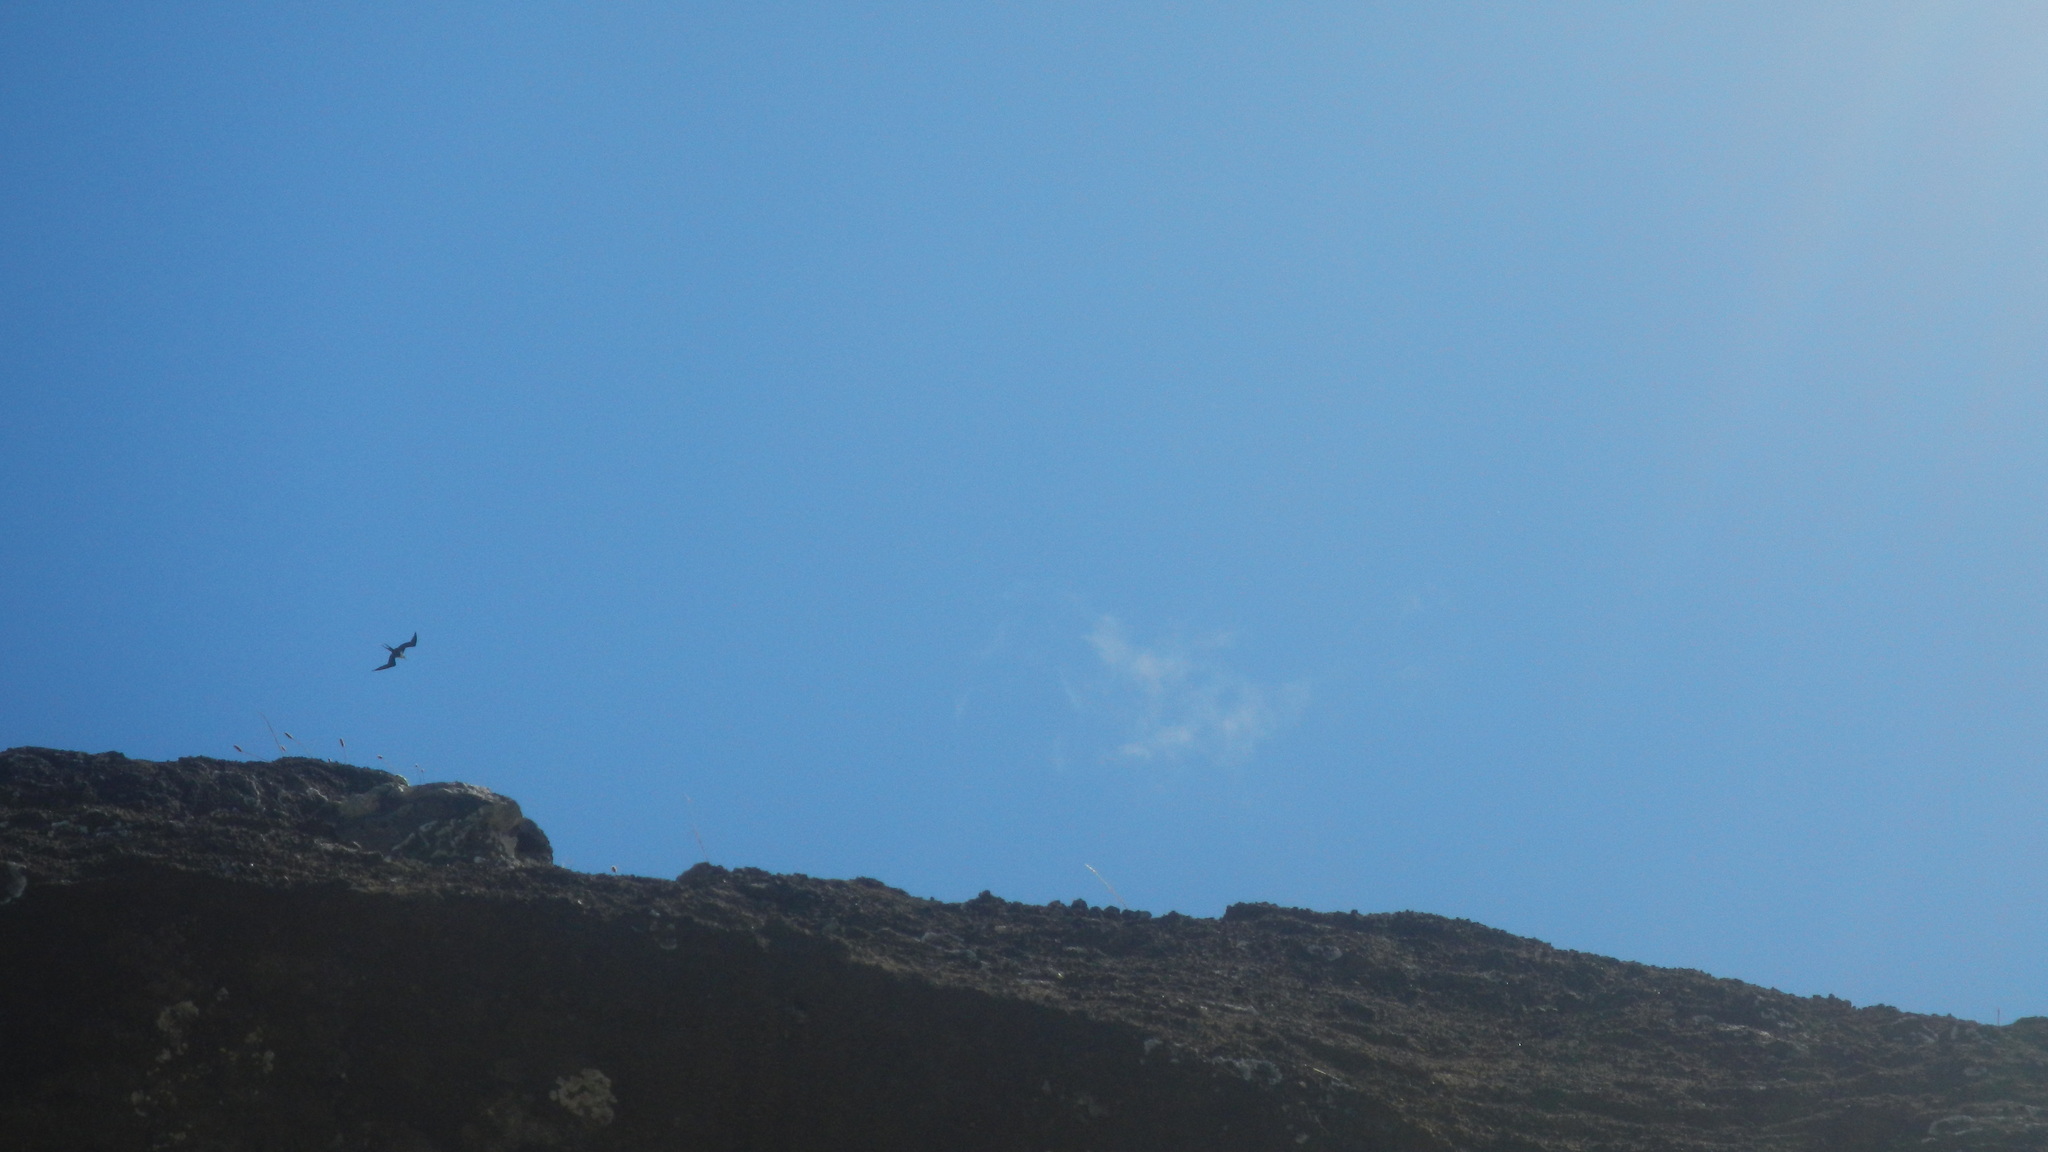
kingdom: Animalia
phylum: Chordata
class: Aves
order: Suliformes
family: Fregatidae
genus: Fregata
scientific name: Fregata minor
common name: Great frigatebird
